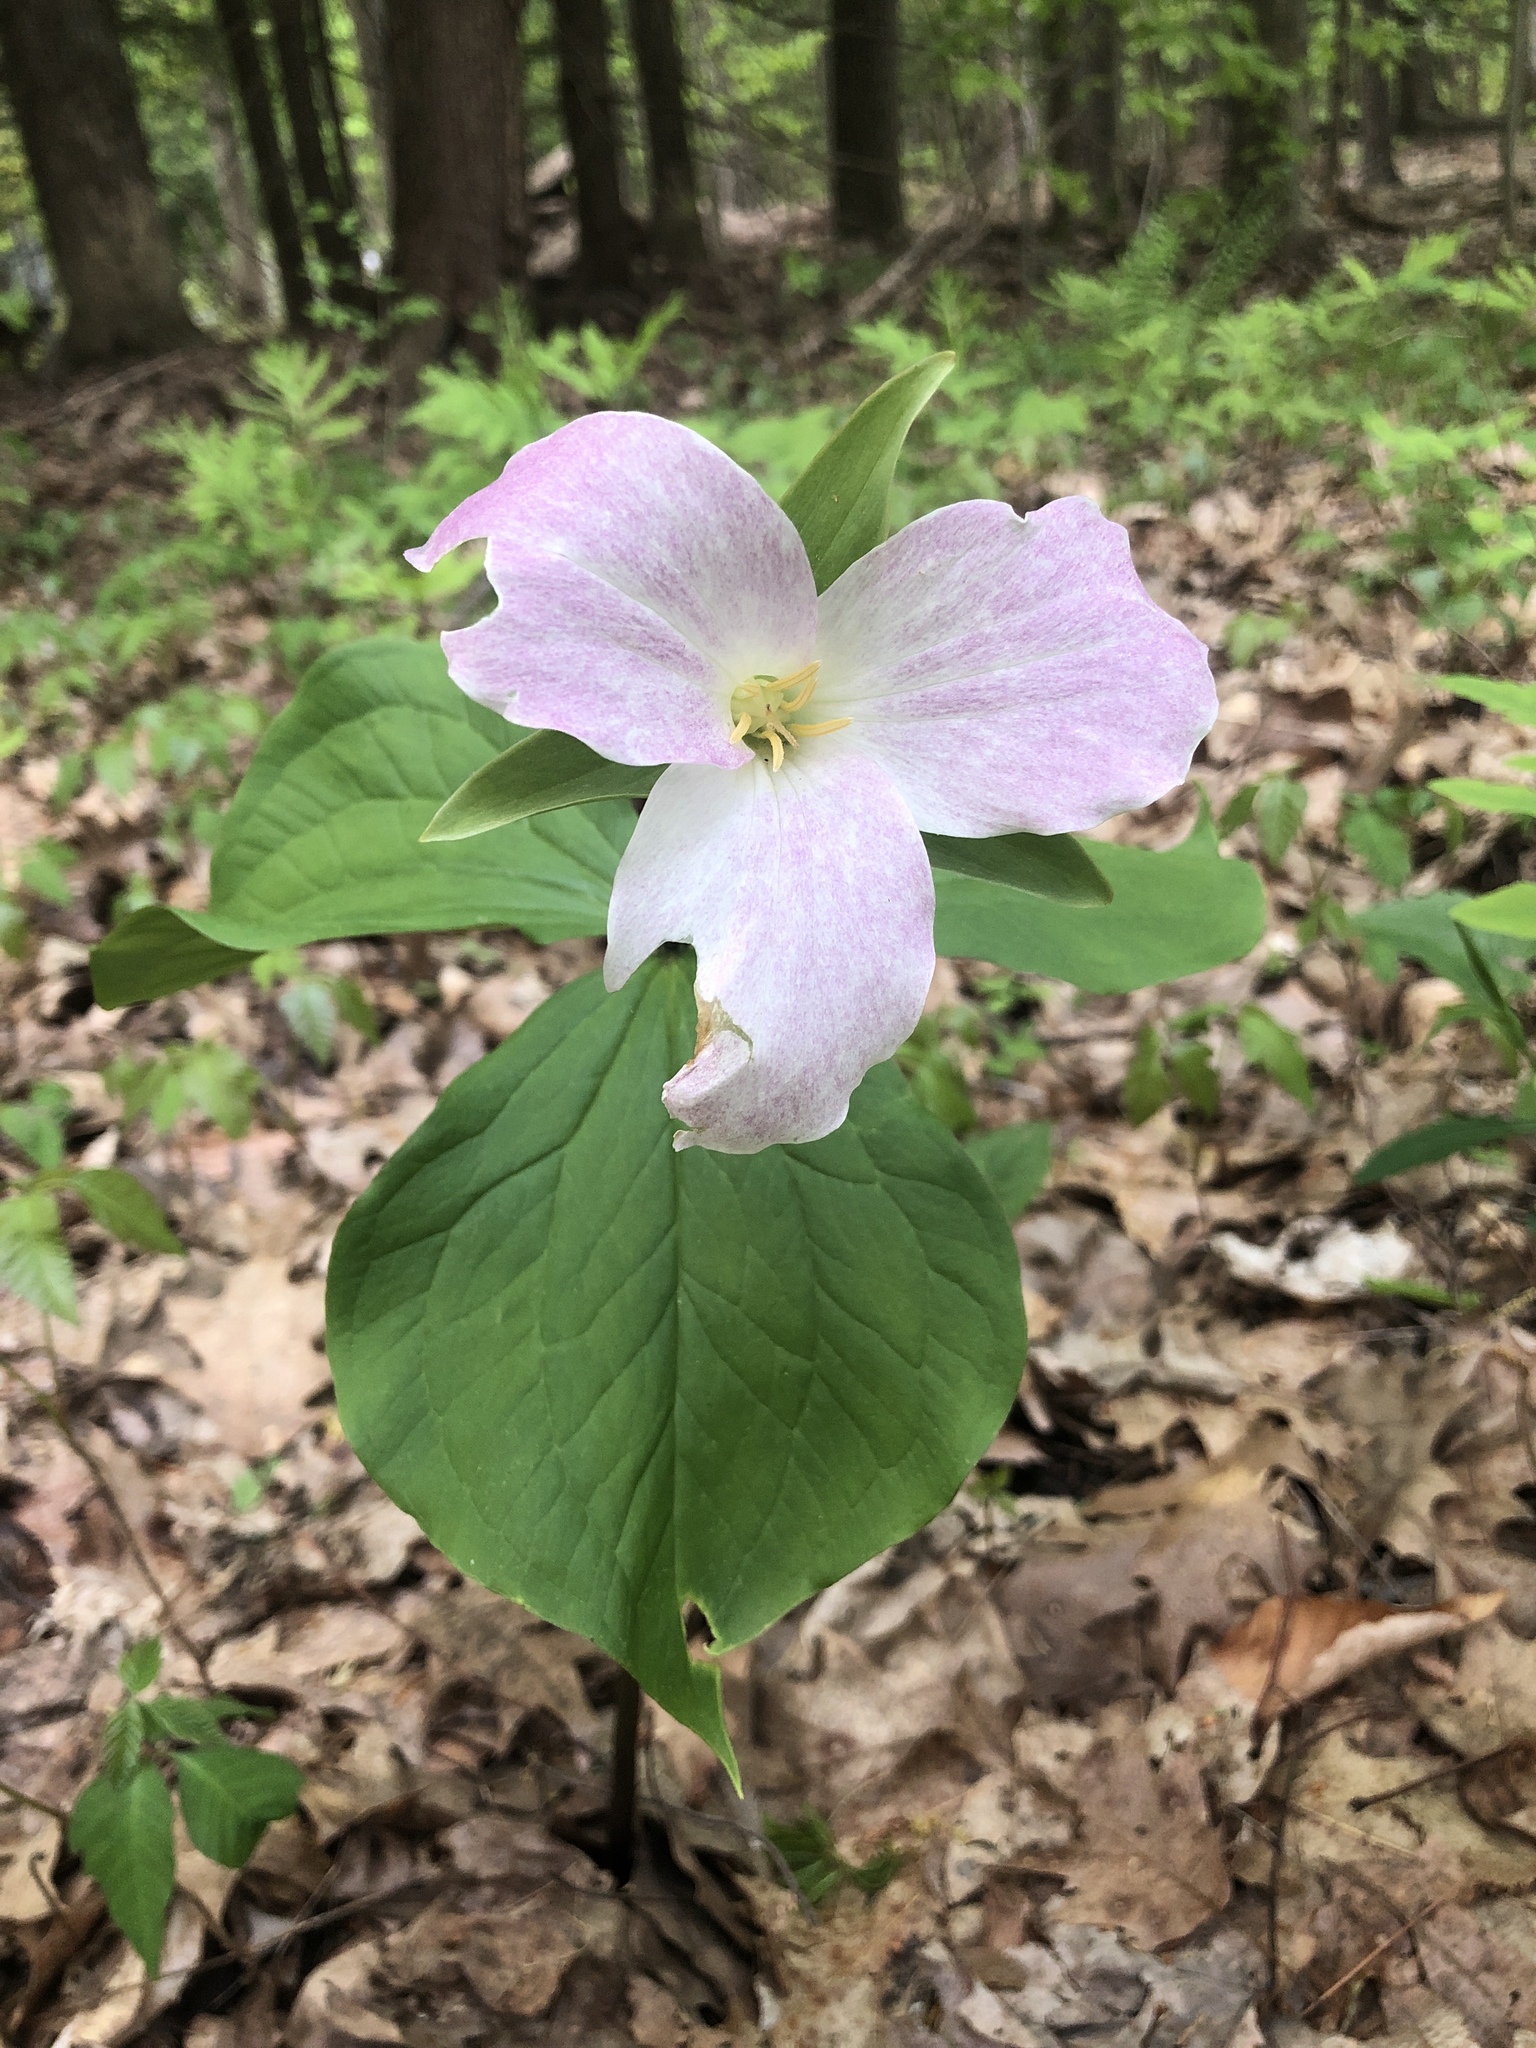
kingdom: Plantae
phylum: Tracheophyta
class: Liliopsida
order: Liliales
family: Melanthiaceae
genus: Trillium
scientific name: Trillium grandiflorum
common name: Great white trillium
